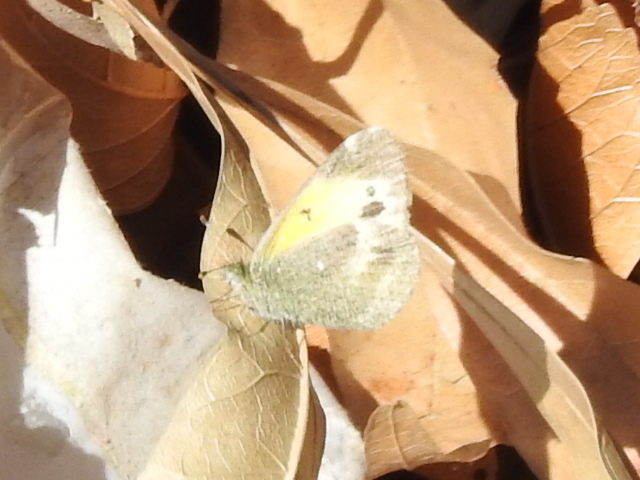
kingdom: Animalia
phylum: Arthropoda
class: Insecta
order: Lepidoptera
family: Pieridae
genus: Nathalis
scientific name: Nathalis iole
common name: Dainty sulphur
